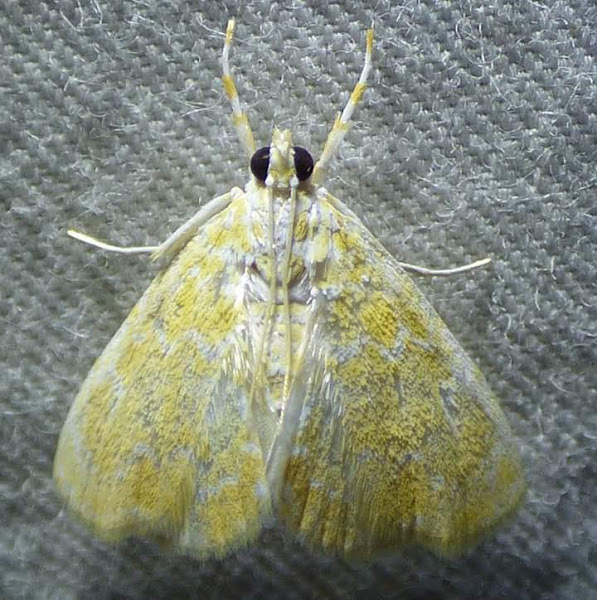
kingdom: Animalia
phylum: Arthropoda
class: Insecta
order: Lepidoptera
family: Crambidae
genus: Glaphyria
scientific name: Glaphyria glaphyralis
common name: Common glaphyria moth
